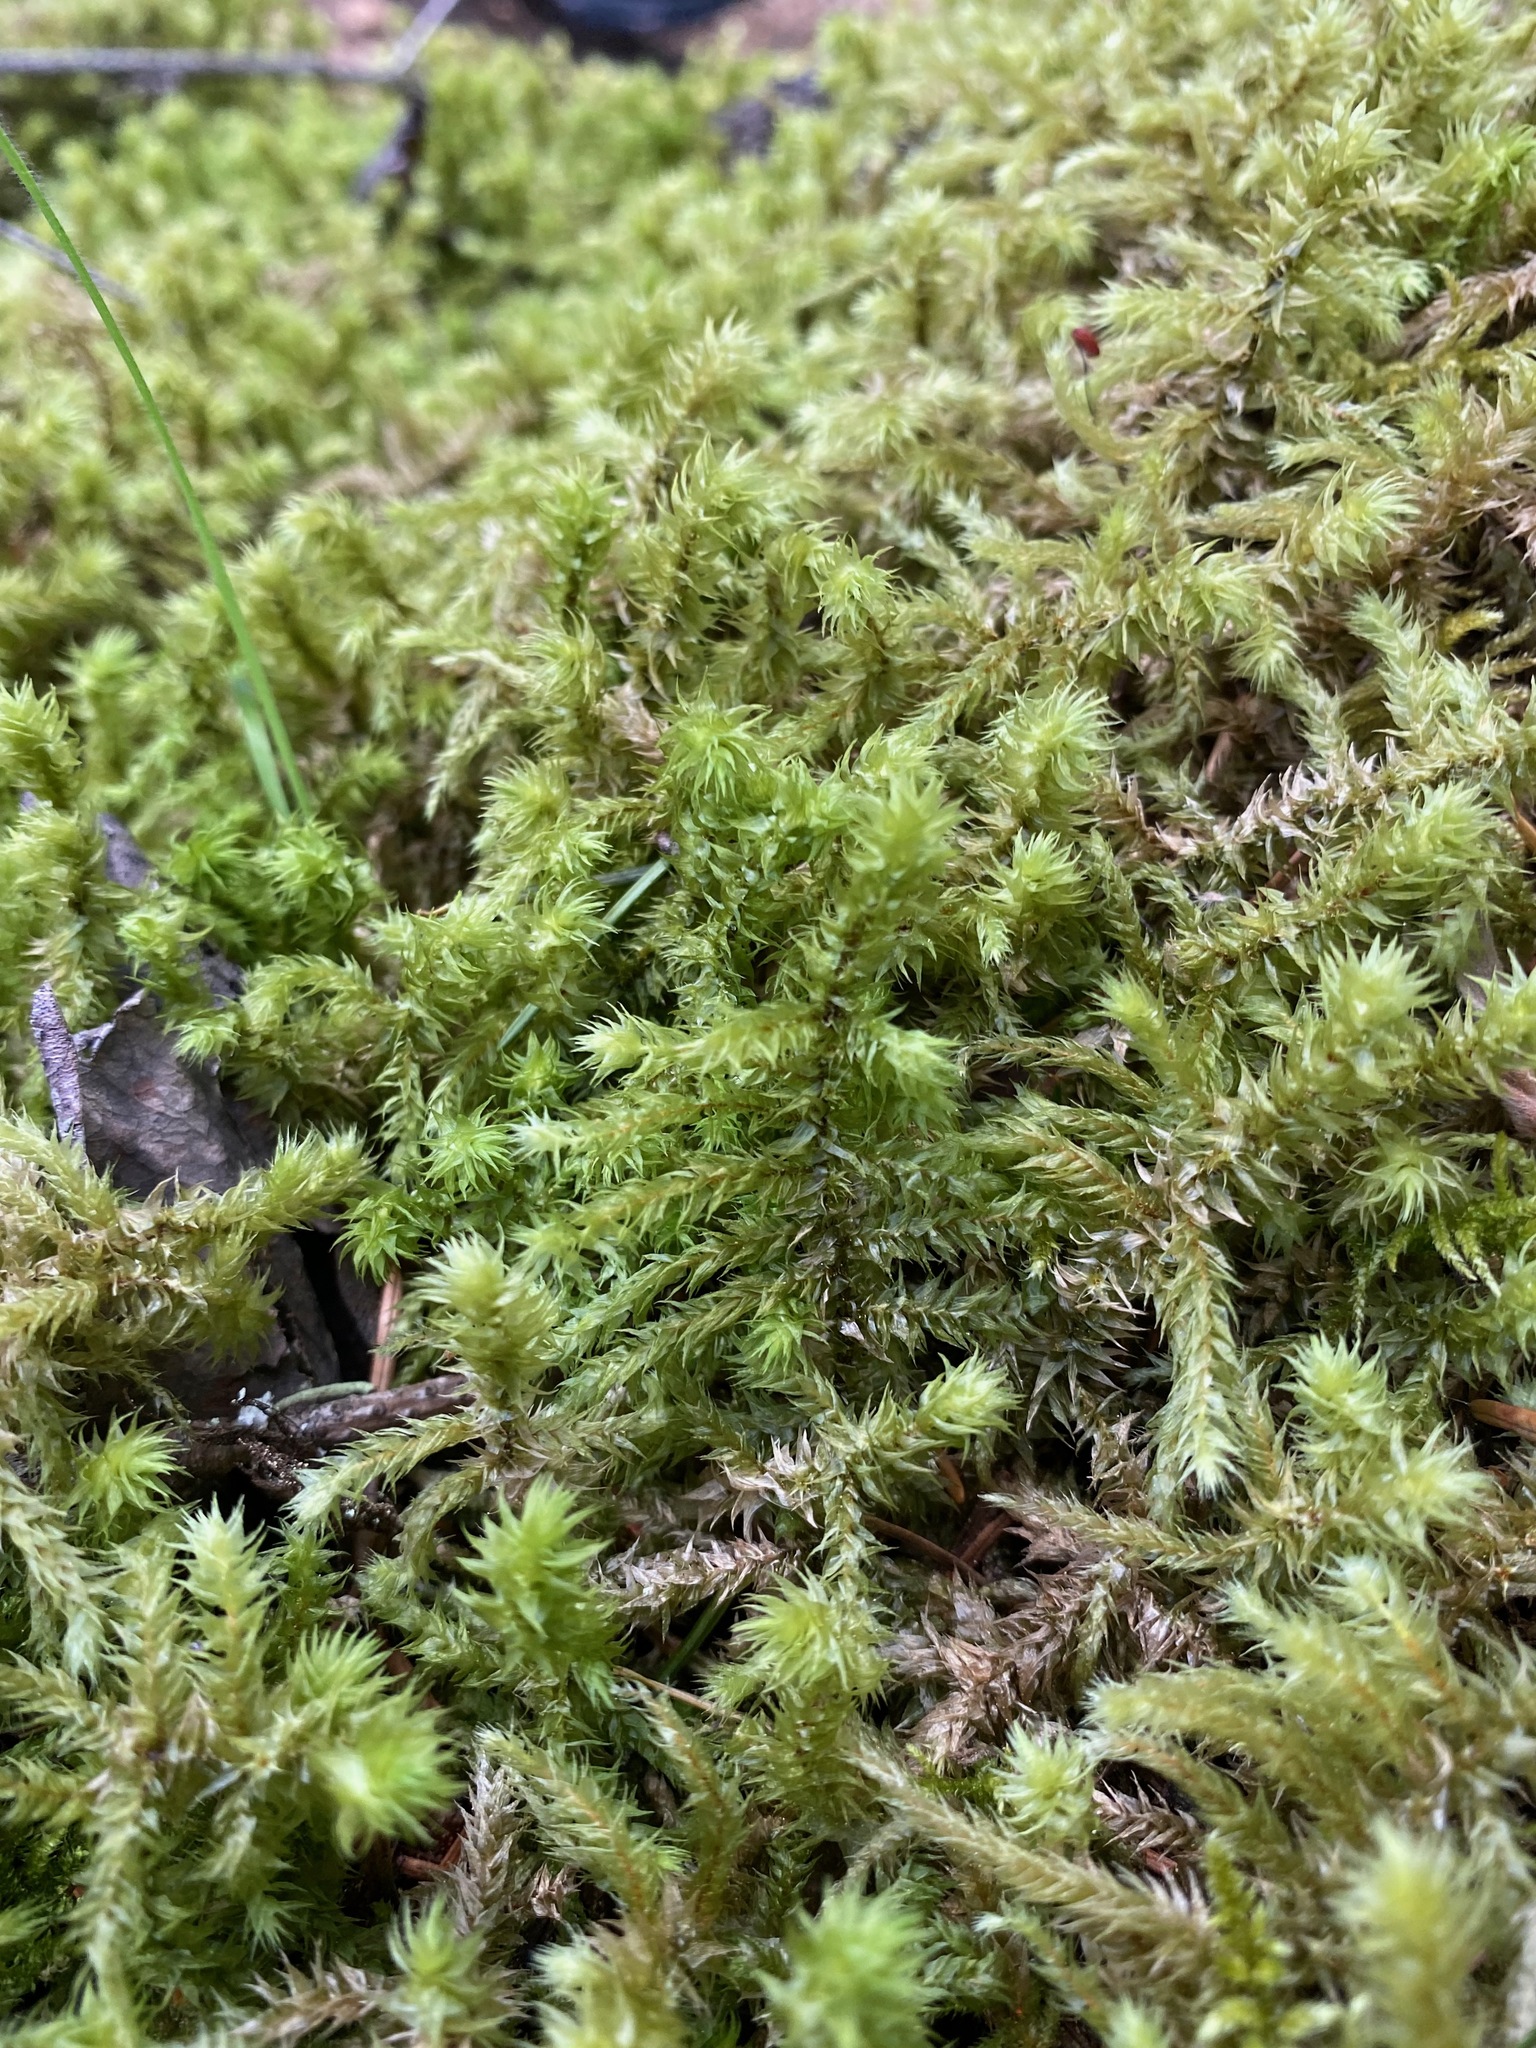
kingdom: Plantae
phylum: Bryophyta
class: Bryopsida
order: Hypnales
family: Hylocomiaceae
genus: Hylocomiadelphus
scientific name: Hylocomiadelphus triquetrus
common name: Rough goose neck moss
